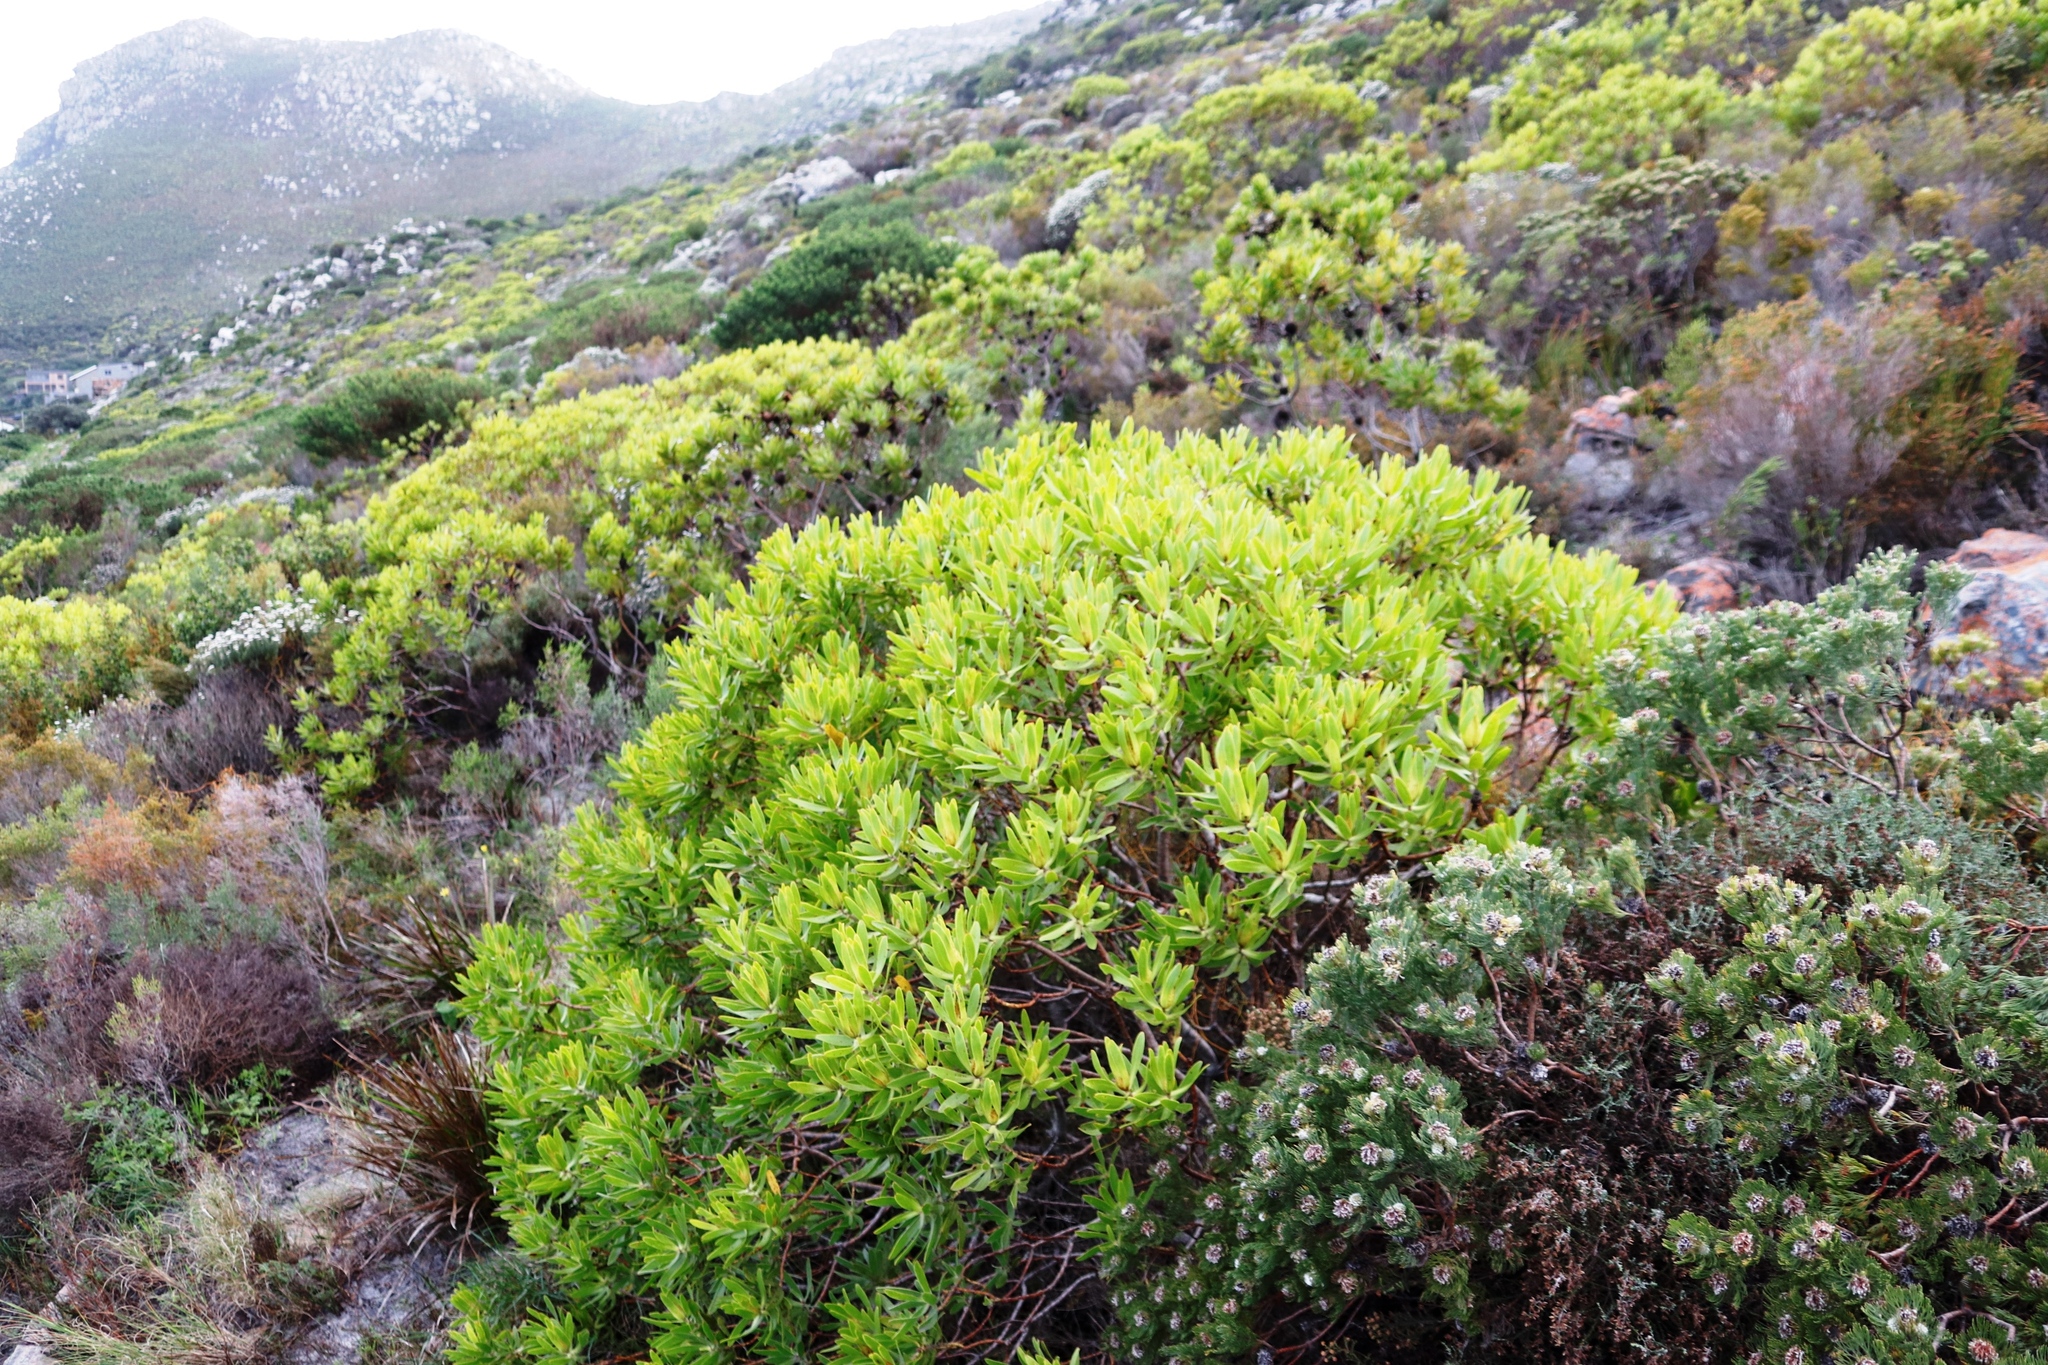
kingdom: Plantae
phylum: Tracheophyta
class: Magnoliopsida
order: Proteales
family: Proteaceae
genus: Leucadendron
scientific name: Leucadendron laureolum
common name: Golden sunshinebush
